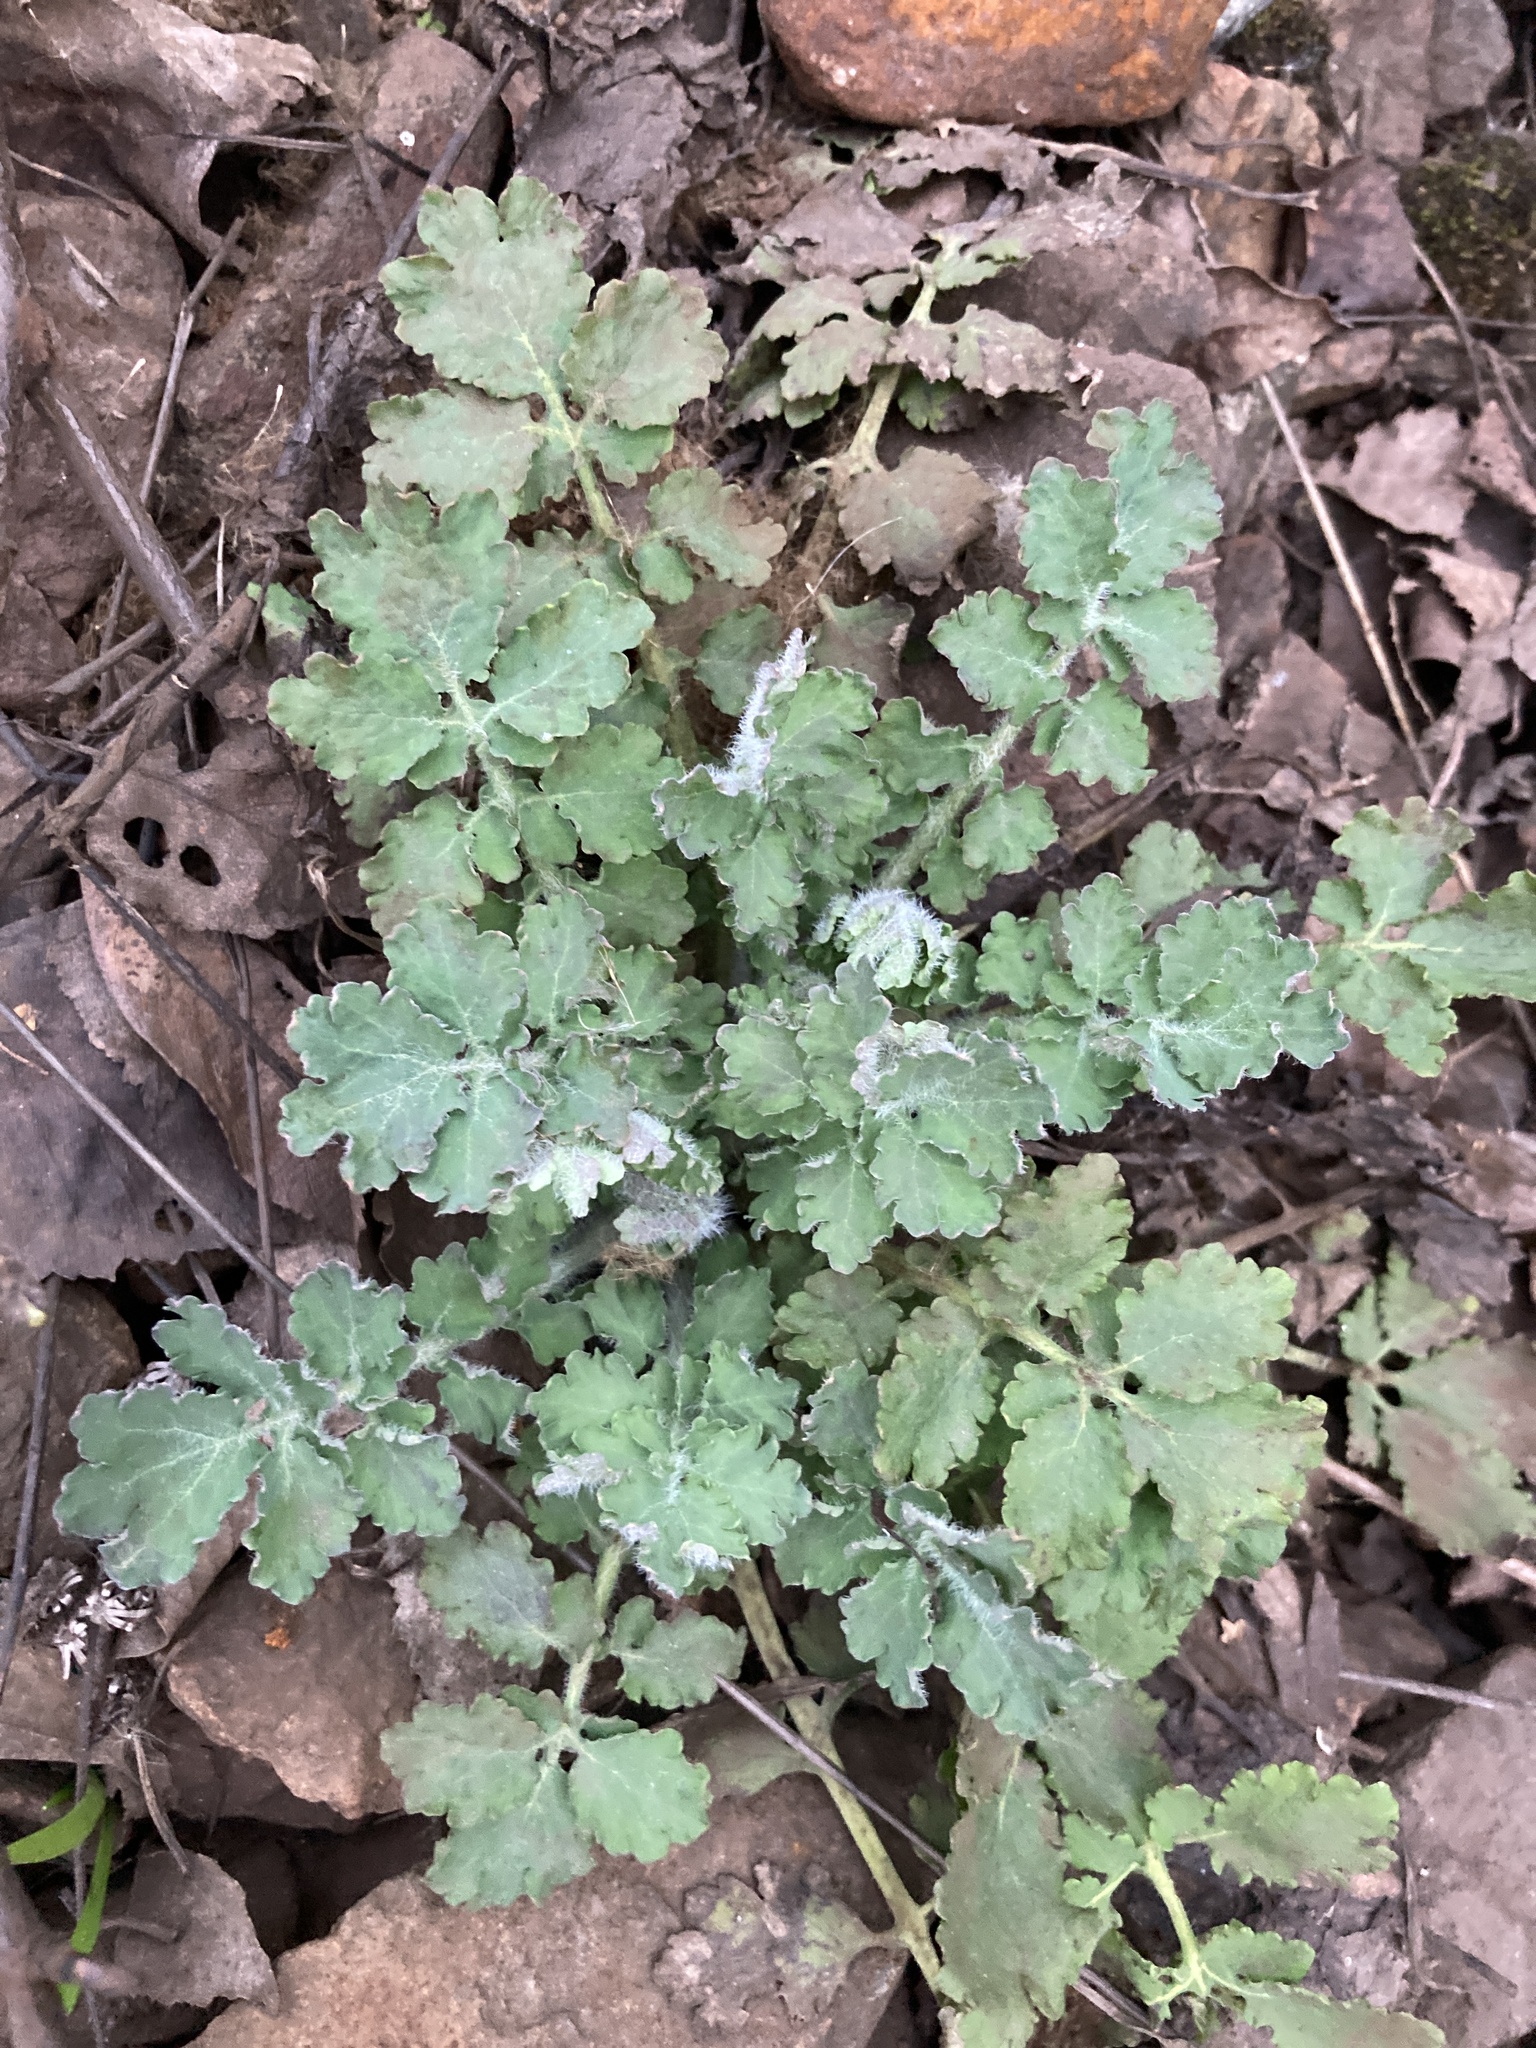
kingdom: Plantae
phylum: Tracheophyta
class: Magnoliopsida
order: Ranunculales
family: Papaveraceae
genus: Chelidonium
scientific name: Chelidonium majus
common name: Greater celandine
